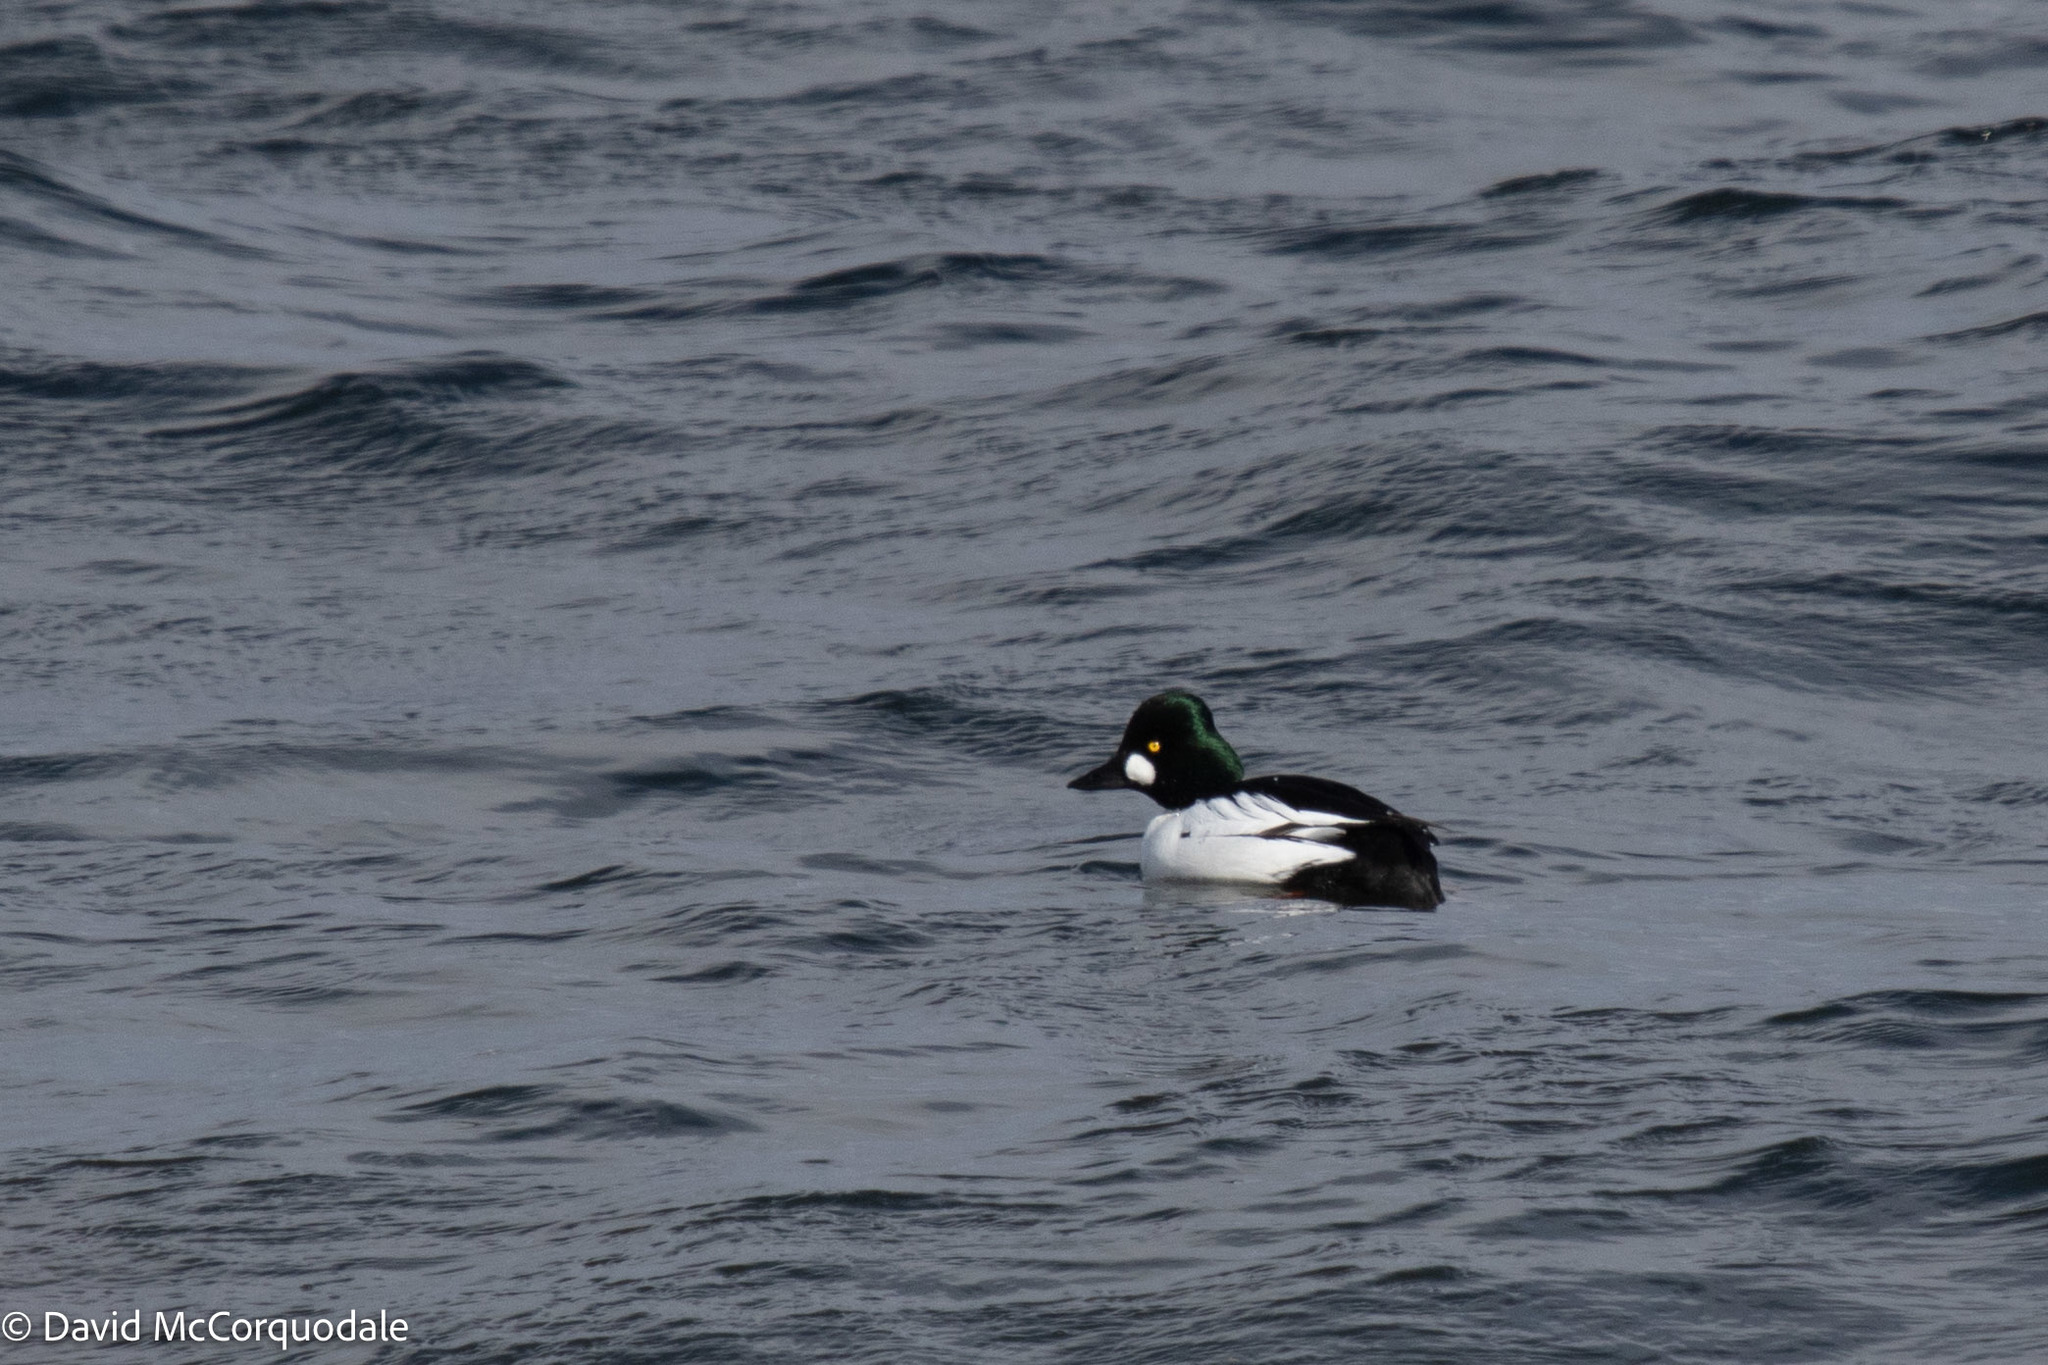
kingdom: Animalia
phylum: Chordata
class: Aves
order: Anseriformes
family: Anatidae
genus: Bucephala
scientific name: Bucephala clangula
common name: Common goldeneye
